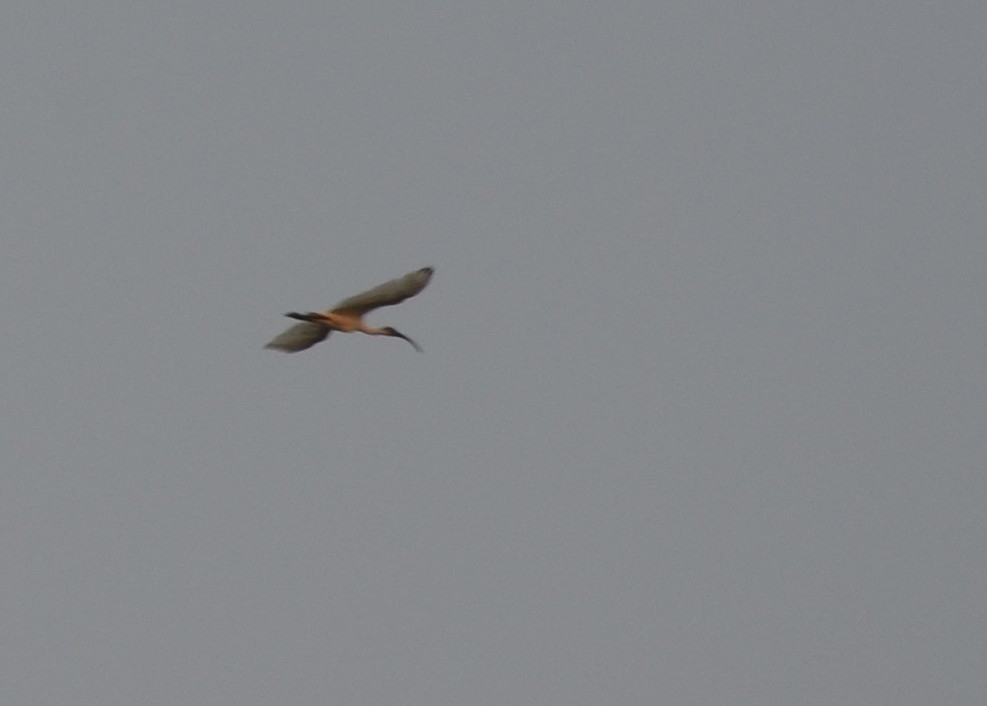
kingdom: Animalia
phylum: Chordata
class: Aves
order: Pelecaniformes
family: Threskiornithidae
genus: Threskiornis
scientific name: Threskiornis melanocephalus
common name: Black-headed ibis
